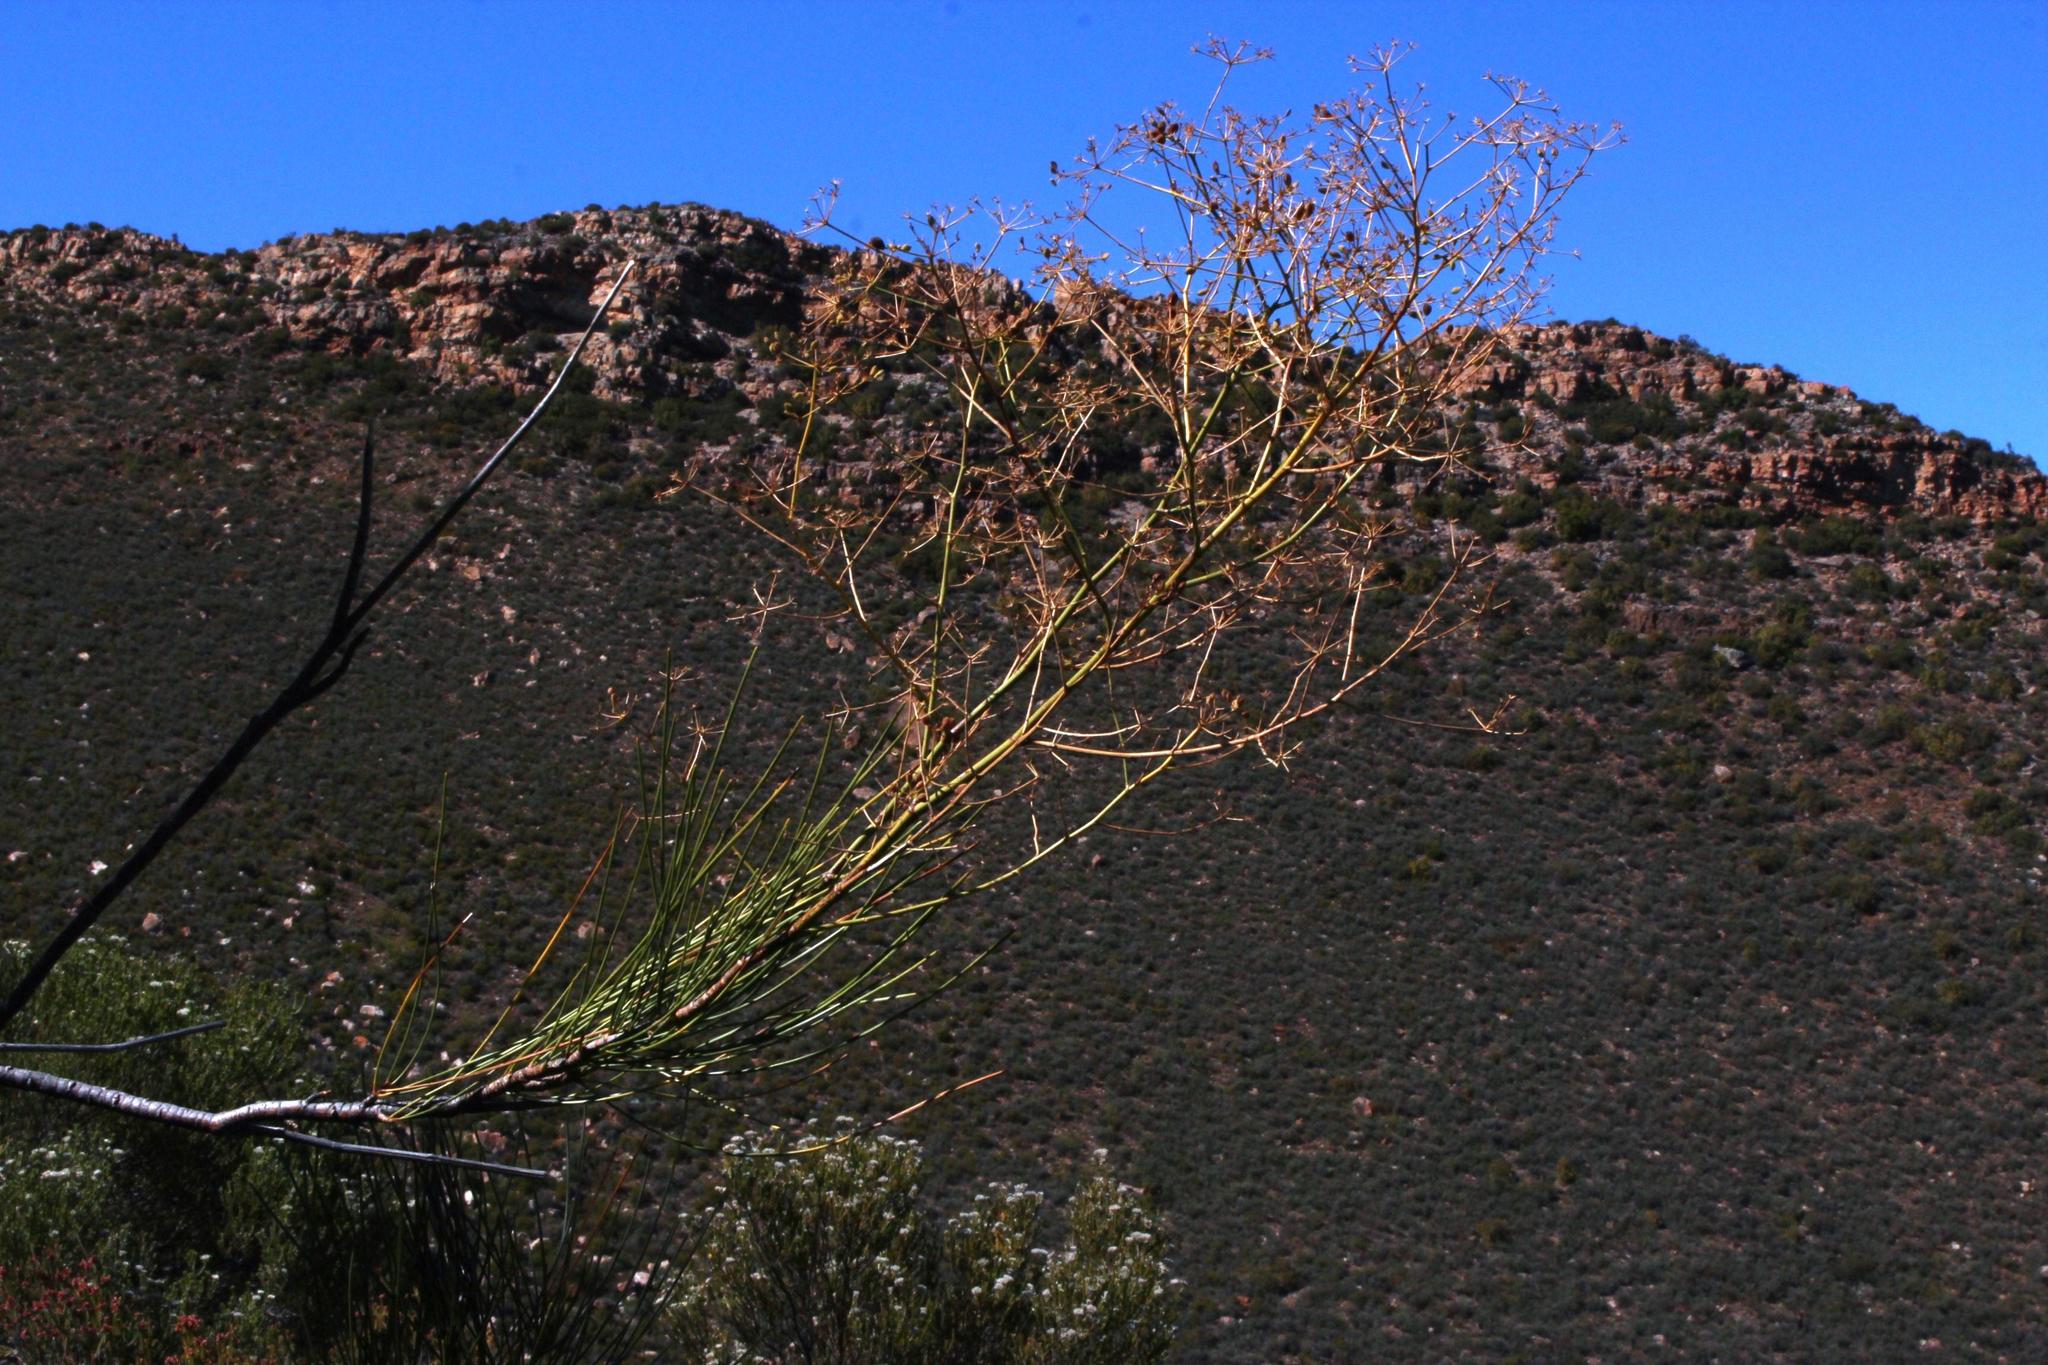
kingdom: Plantae
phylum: Tracheophyta
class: Magnoliopsida
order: Apiales
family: Apiaceae
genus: Anginon
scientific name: Anginon difforme
